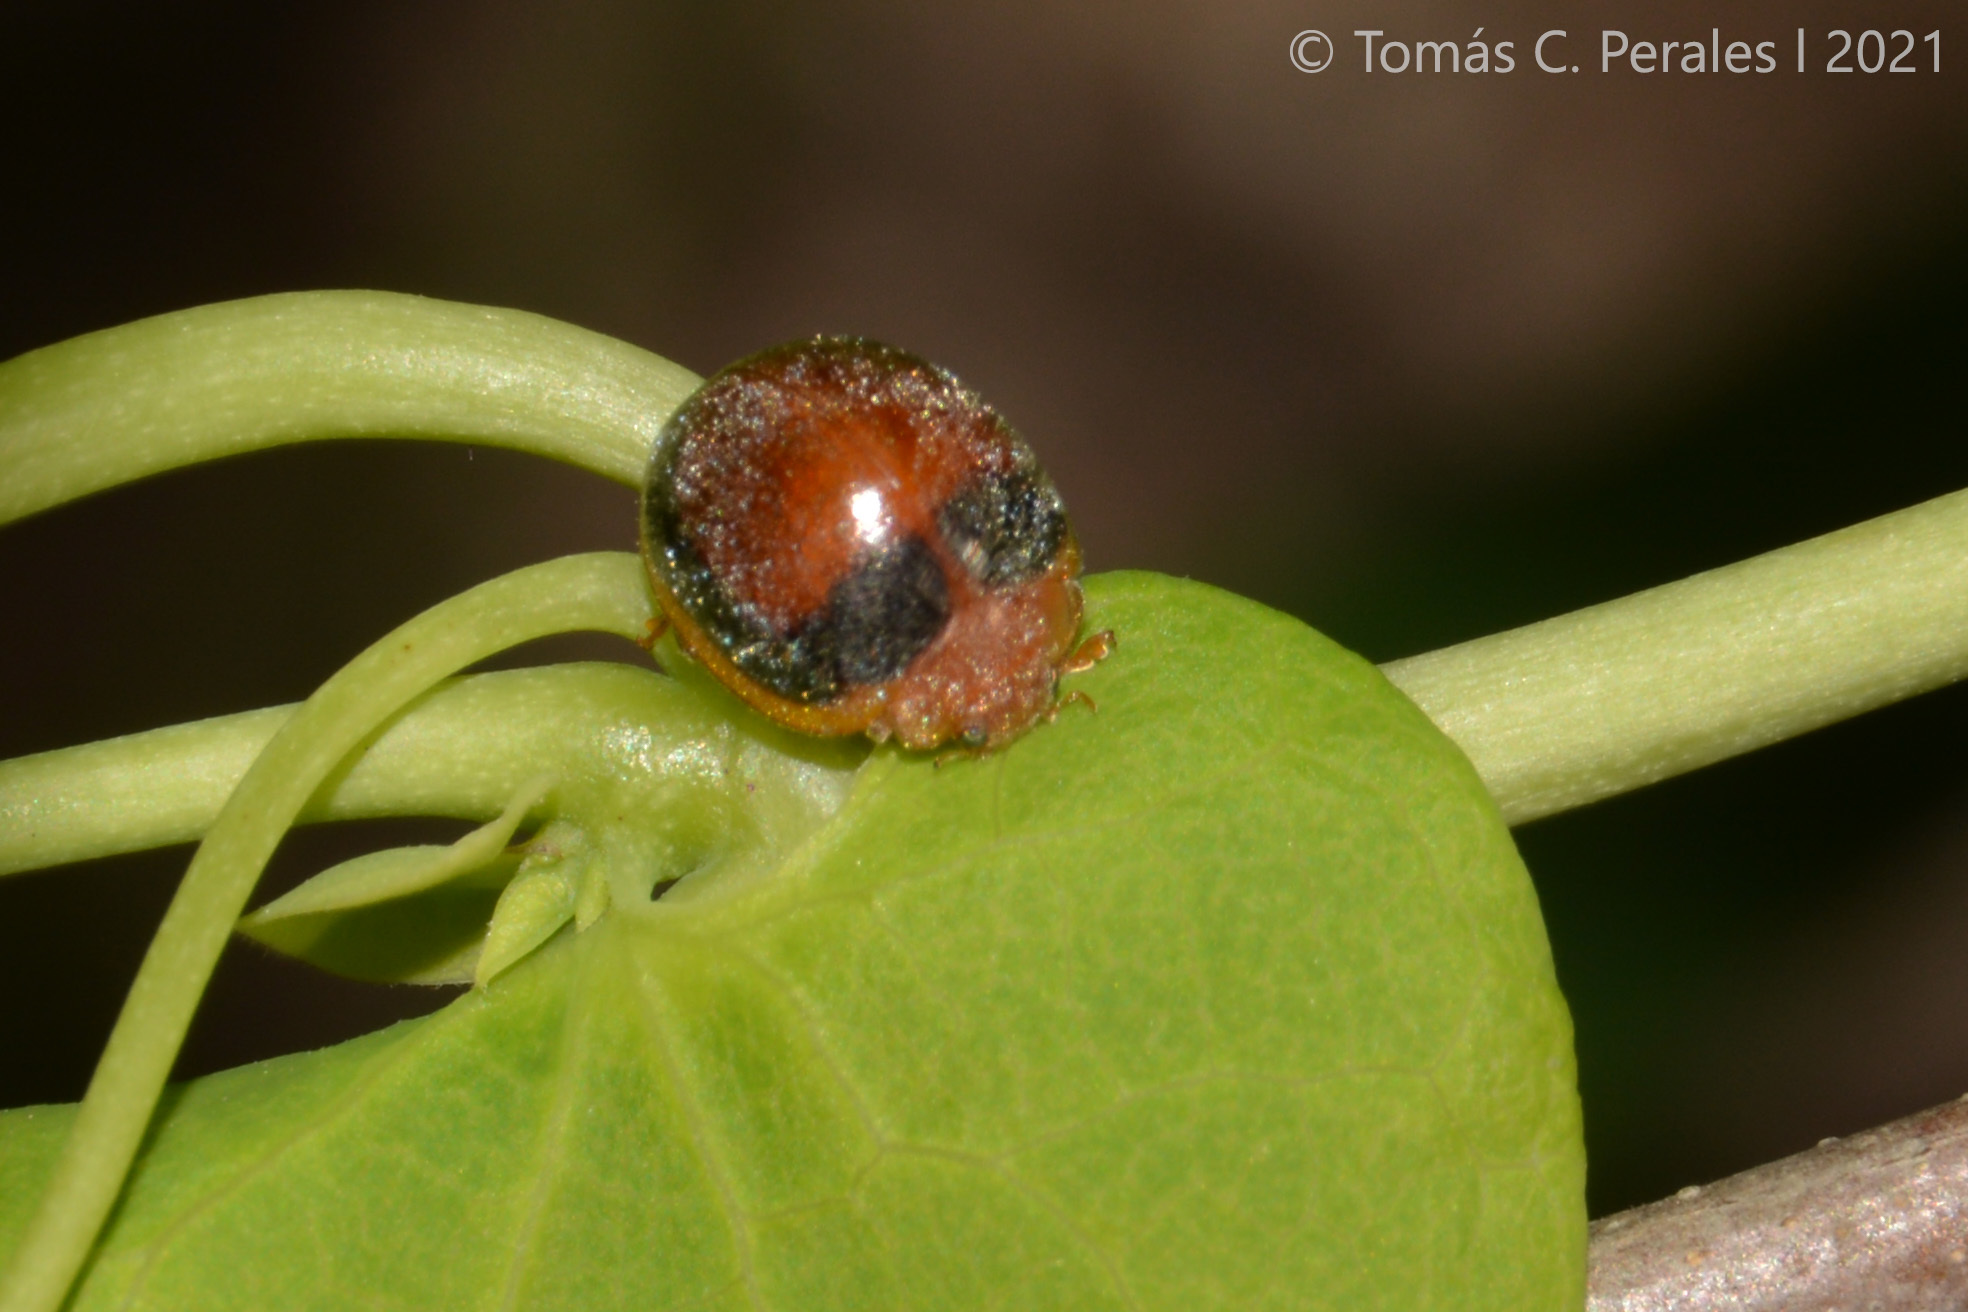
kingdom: Animalia
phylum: Arthropoda
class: Insecta
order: Coleoptera
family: Coccinellidae
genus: Adira
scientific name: Adira
